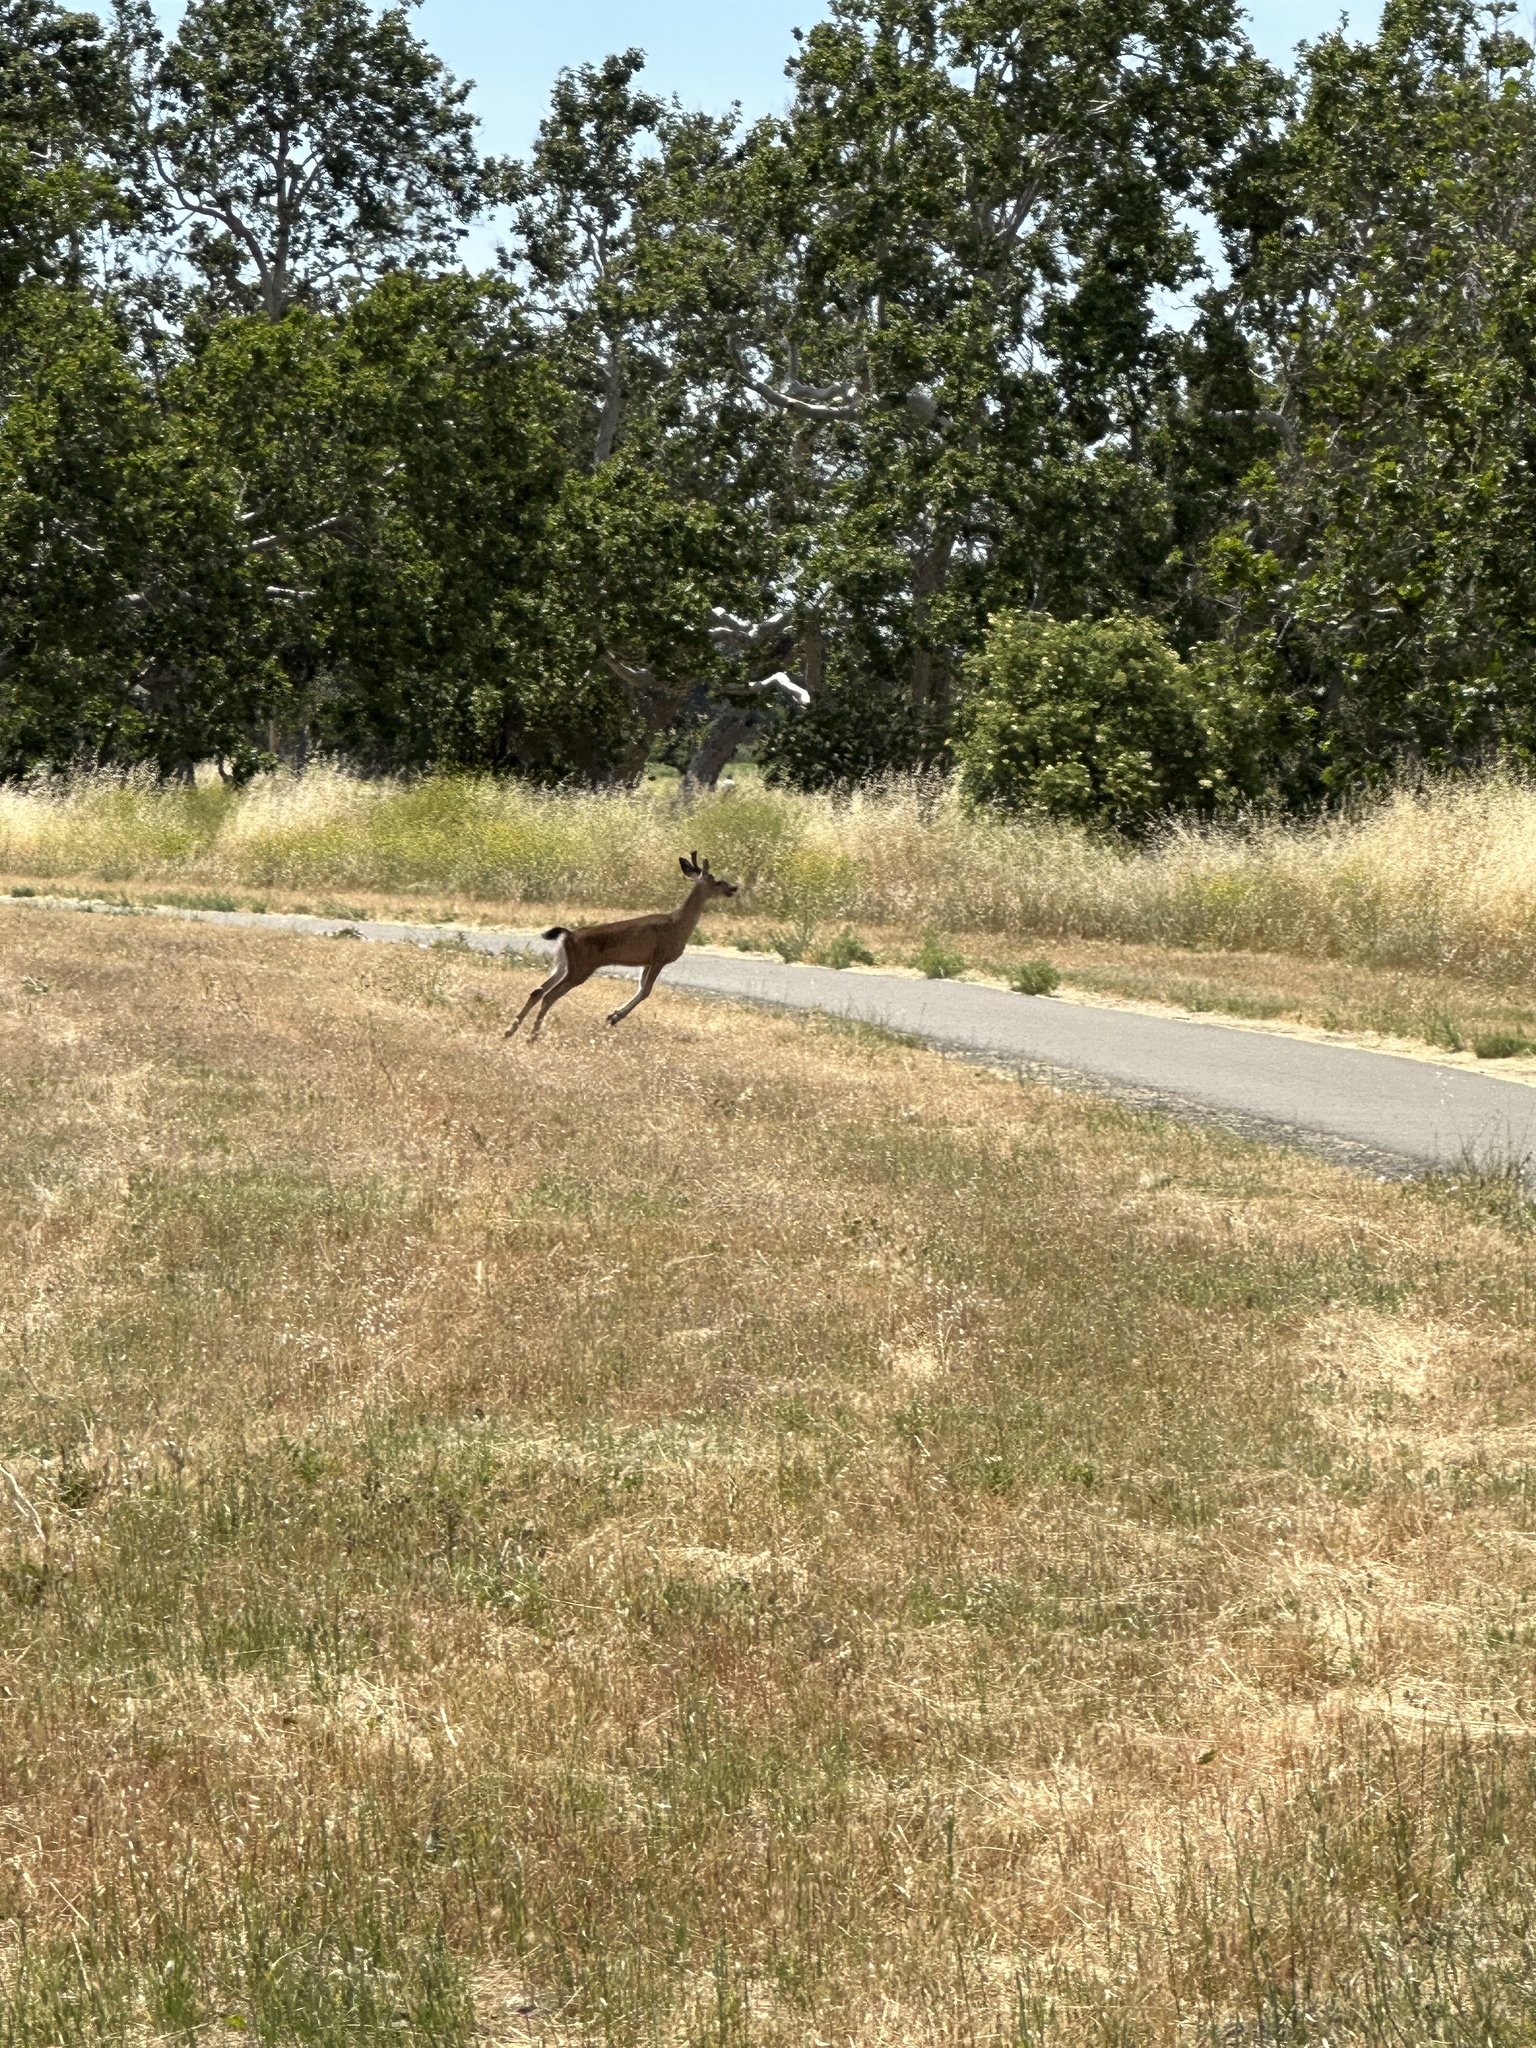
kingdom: Animalia
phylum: Chordata
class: Mammalia
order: Artiodactyla
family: Cervidae
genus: Odocoileus
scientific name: Odocoileus hemionus
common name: Mule deer
